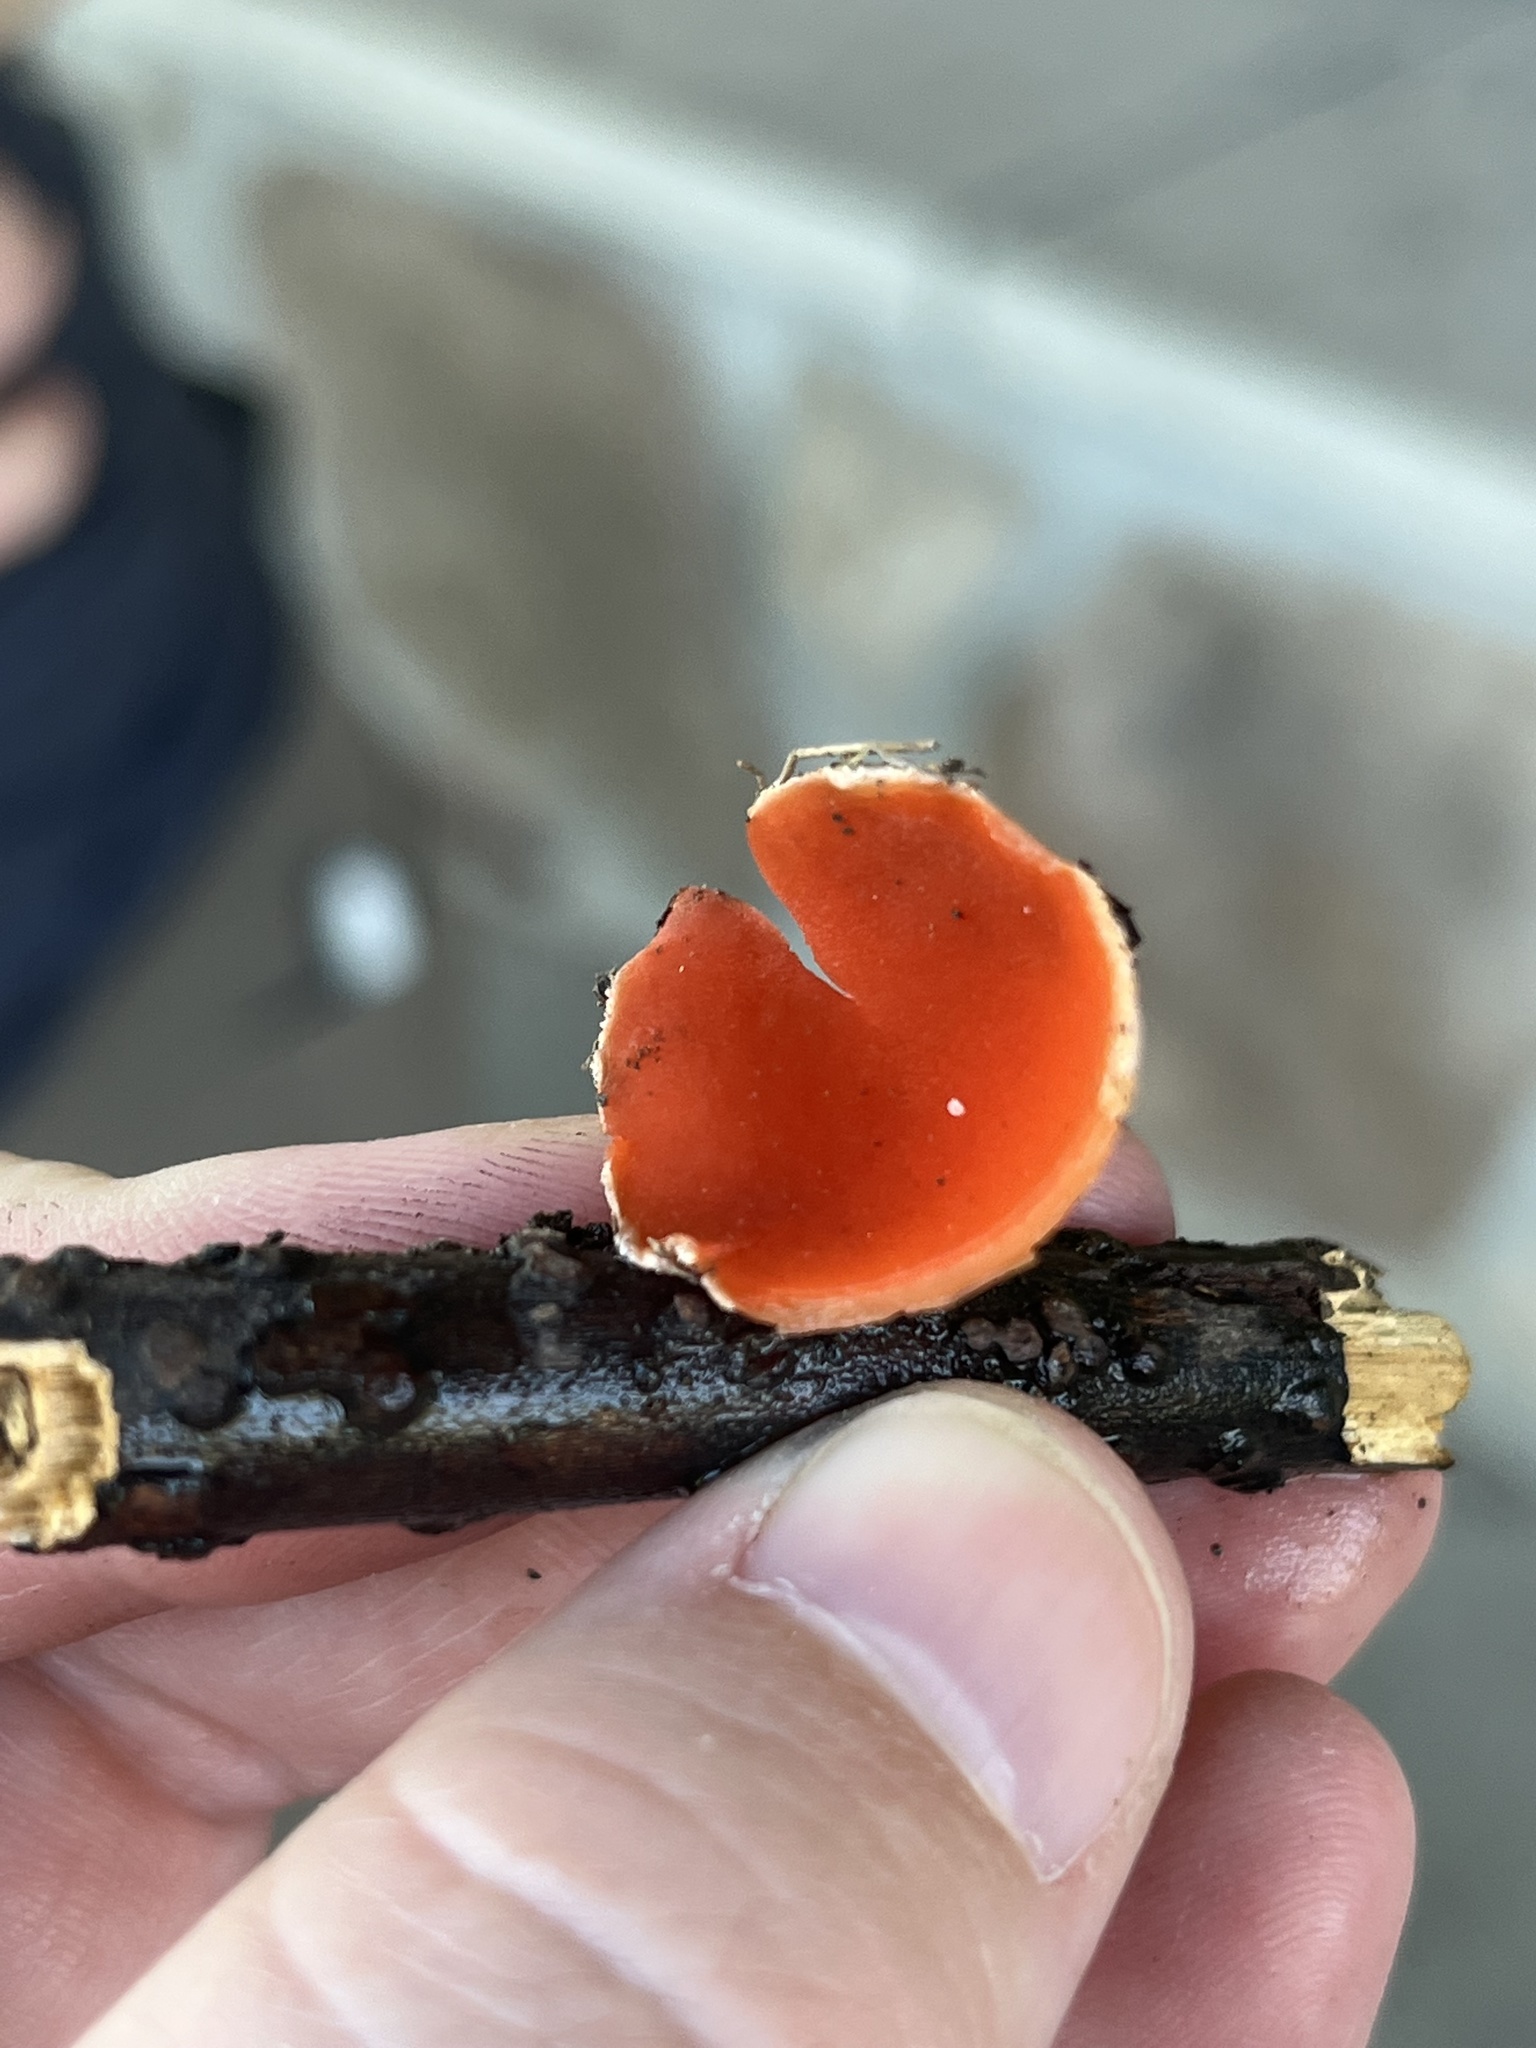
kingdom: Fungi
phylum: Ascomycota
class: Pezizomycetes
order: Pezizales
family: Sarcoscyphaceae
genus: Sarcoscypha
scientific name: Sarcoscypha dudleyi
